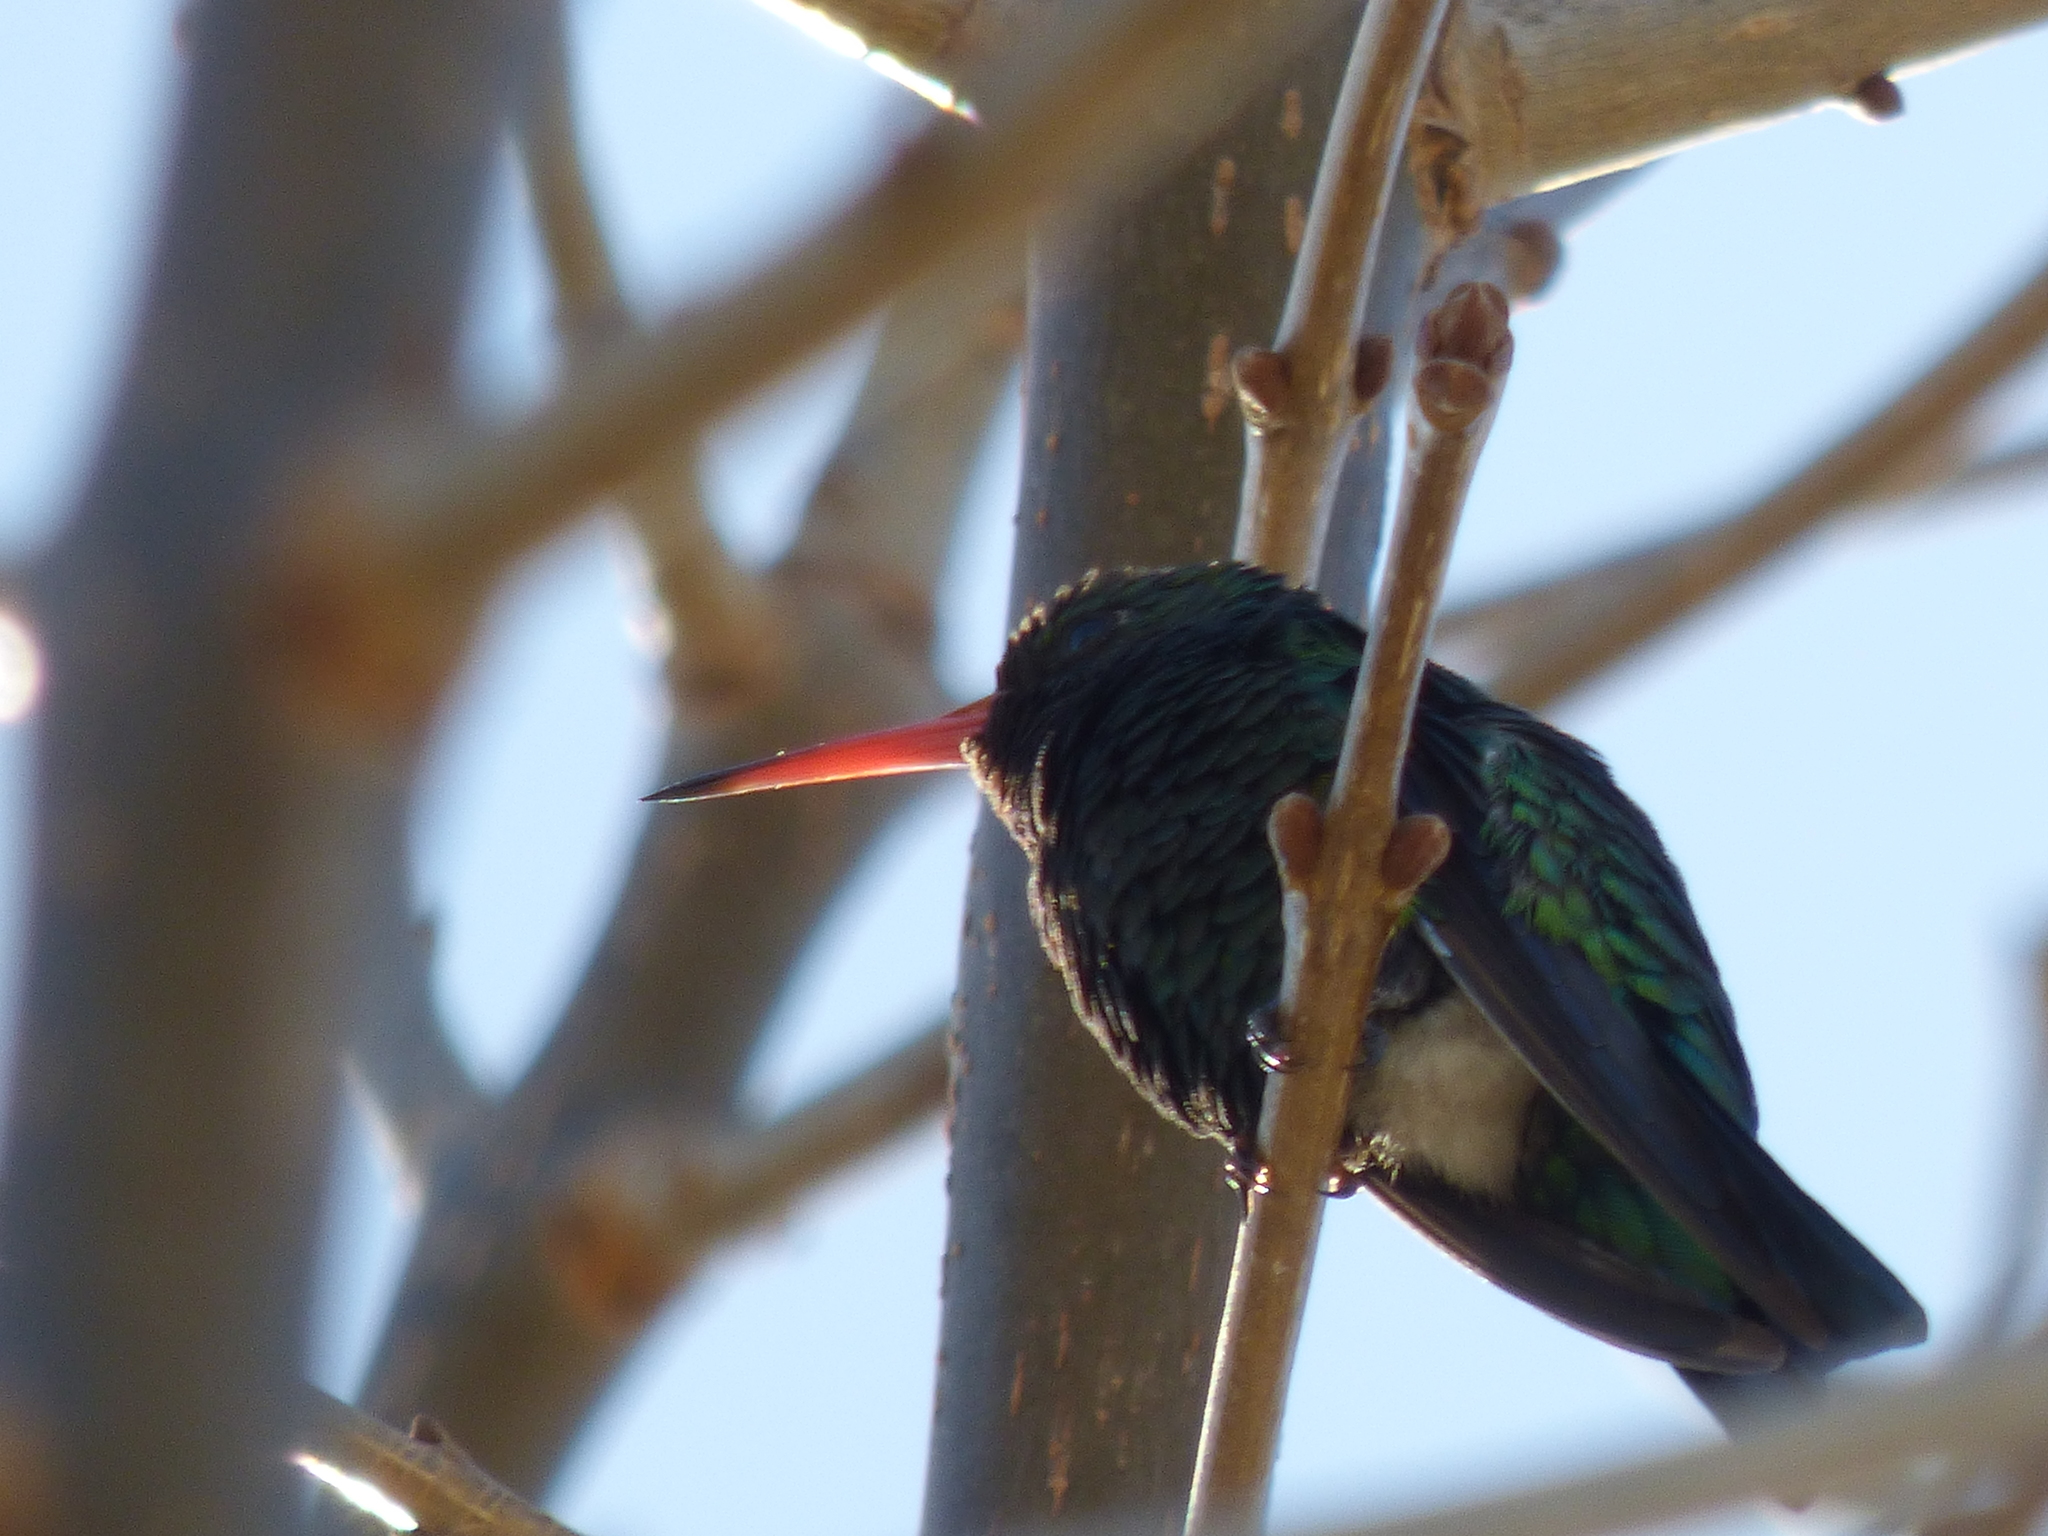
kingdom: Animalia
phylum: Chordata
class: Aves
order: Apodiformes
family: Trochilidae
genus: Chlorostilbon
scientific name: Chlorostilbon lucidus
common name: Glittering-bellied emerald
